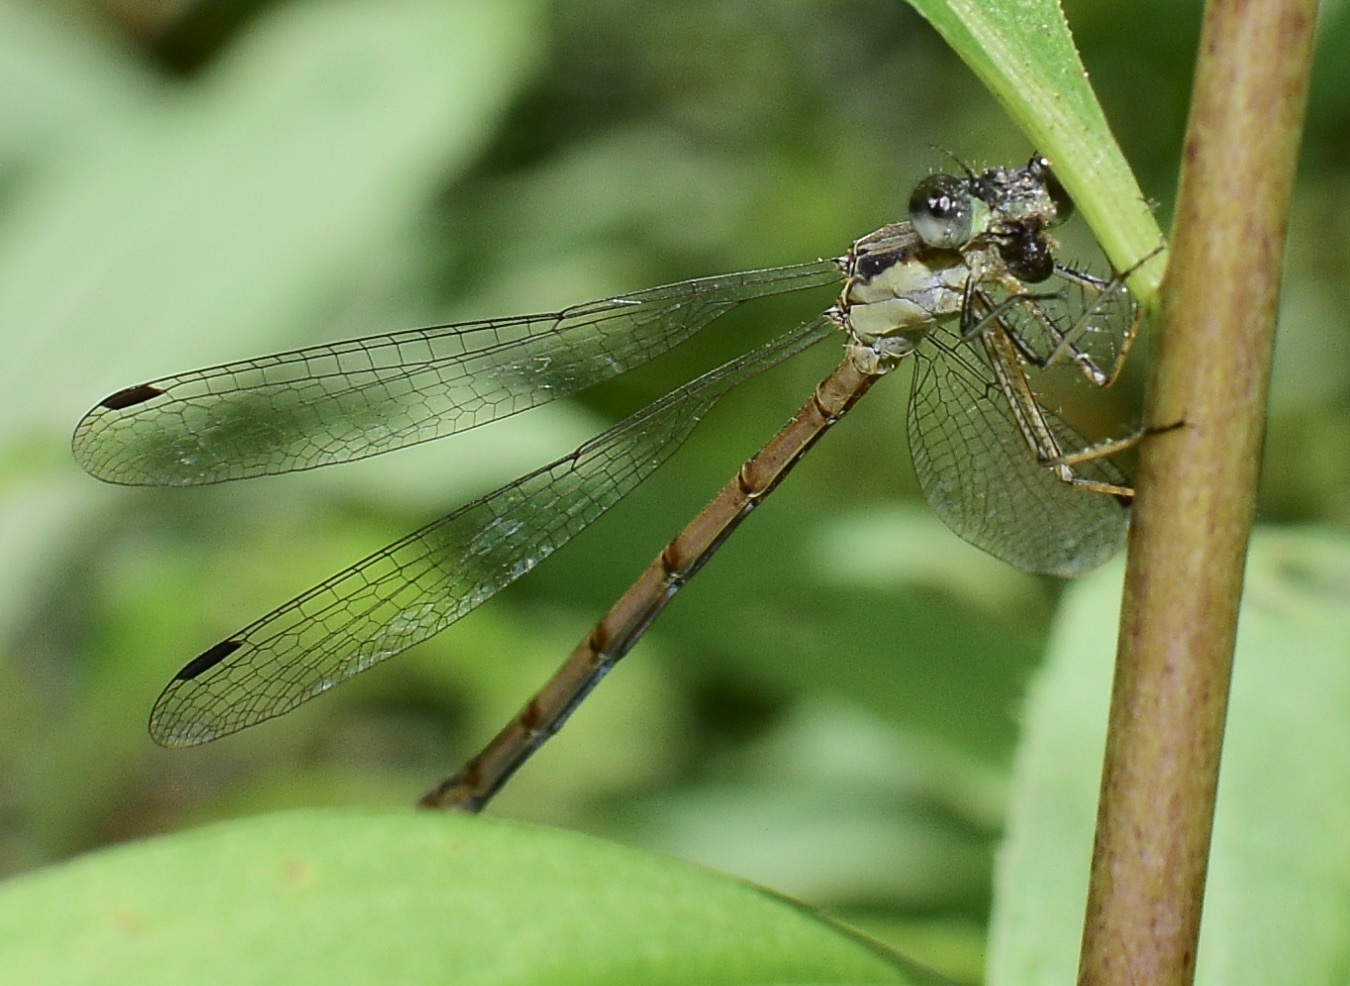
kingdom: Animalia
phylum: Arthropoda
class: Insecta
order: Odonata
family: Lestidae
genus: Lestes
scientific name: Lestes rectangularis
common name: Slender spreadwing
